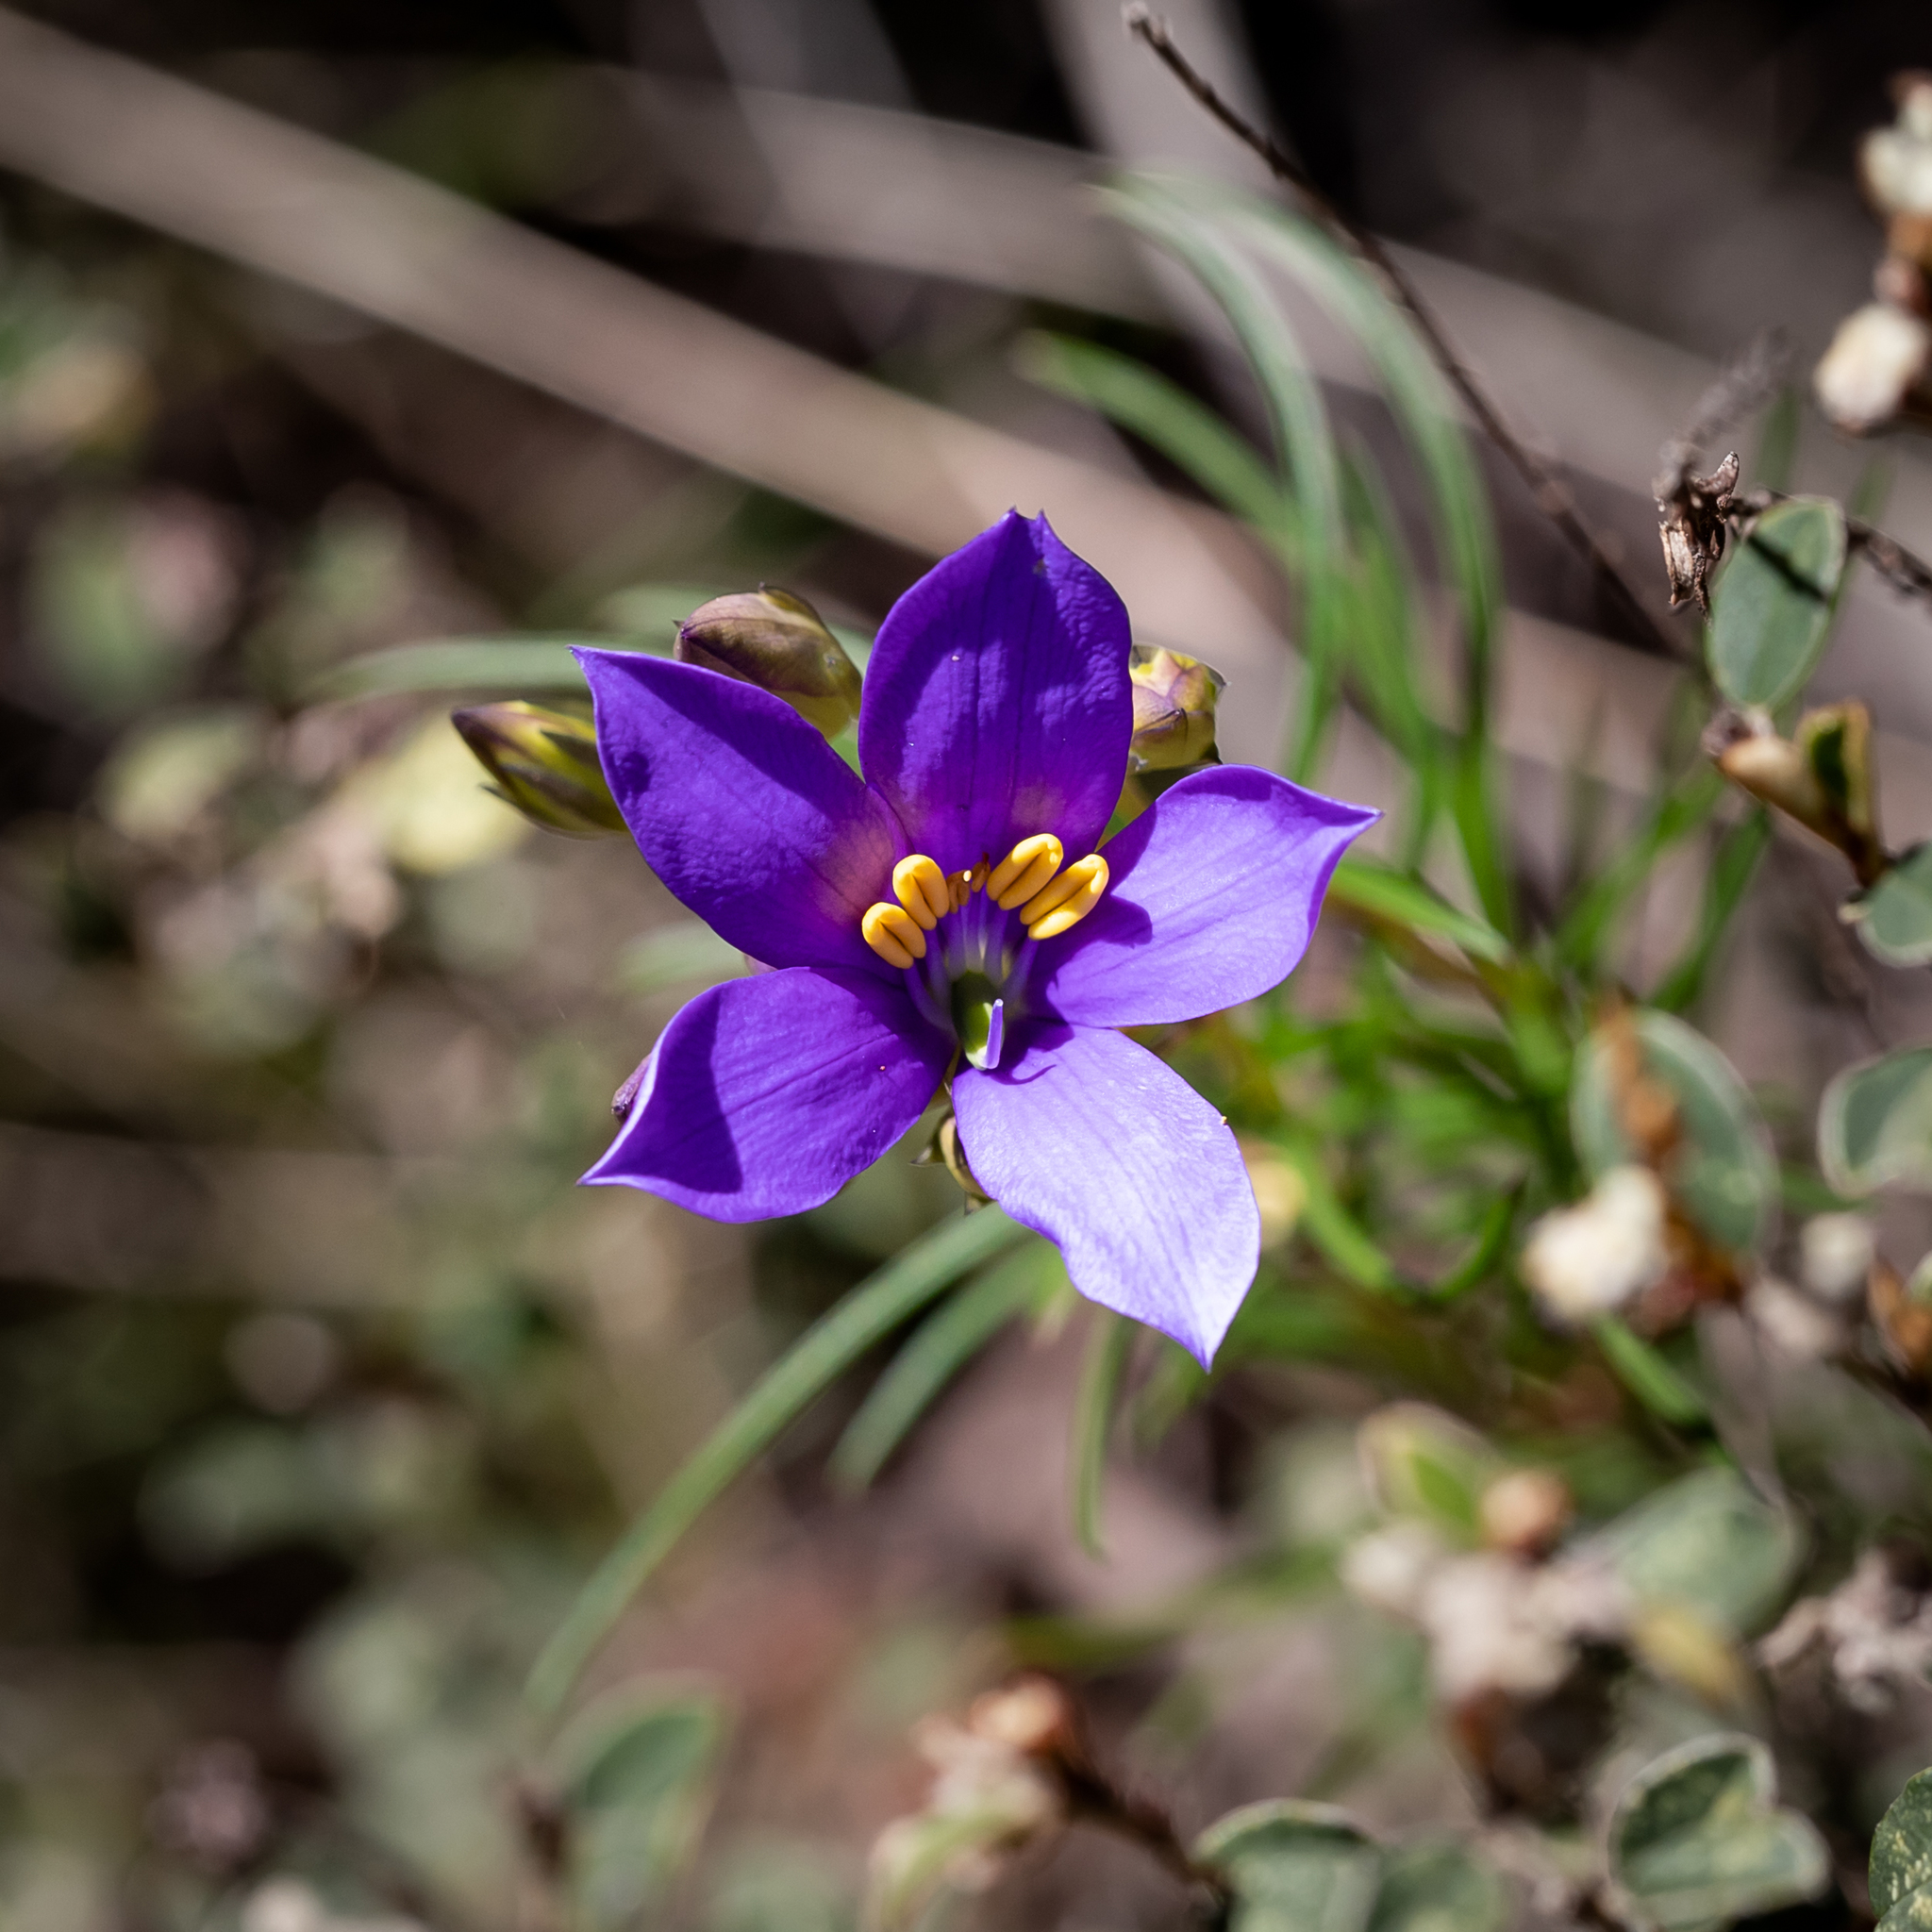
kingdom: Plantae
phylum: Tracheophyta
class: Magnoliopsida
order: Apiales
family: Pittosporaceae
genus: Cheiranthera
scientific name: Cheiranthera alternifolia
